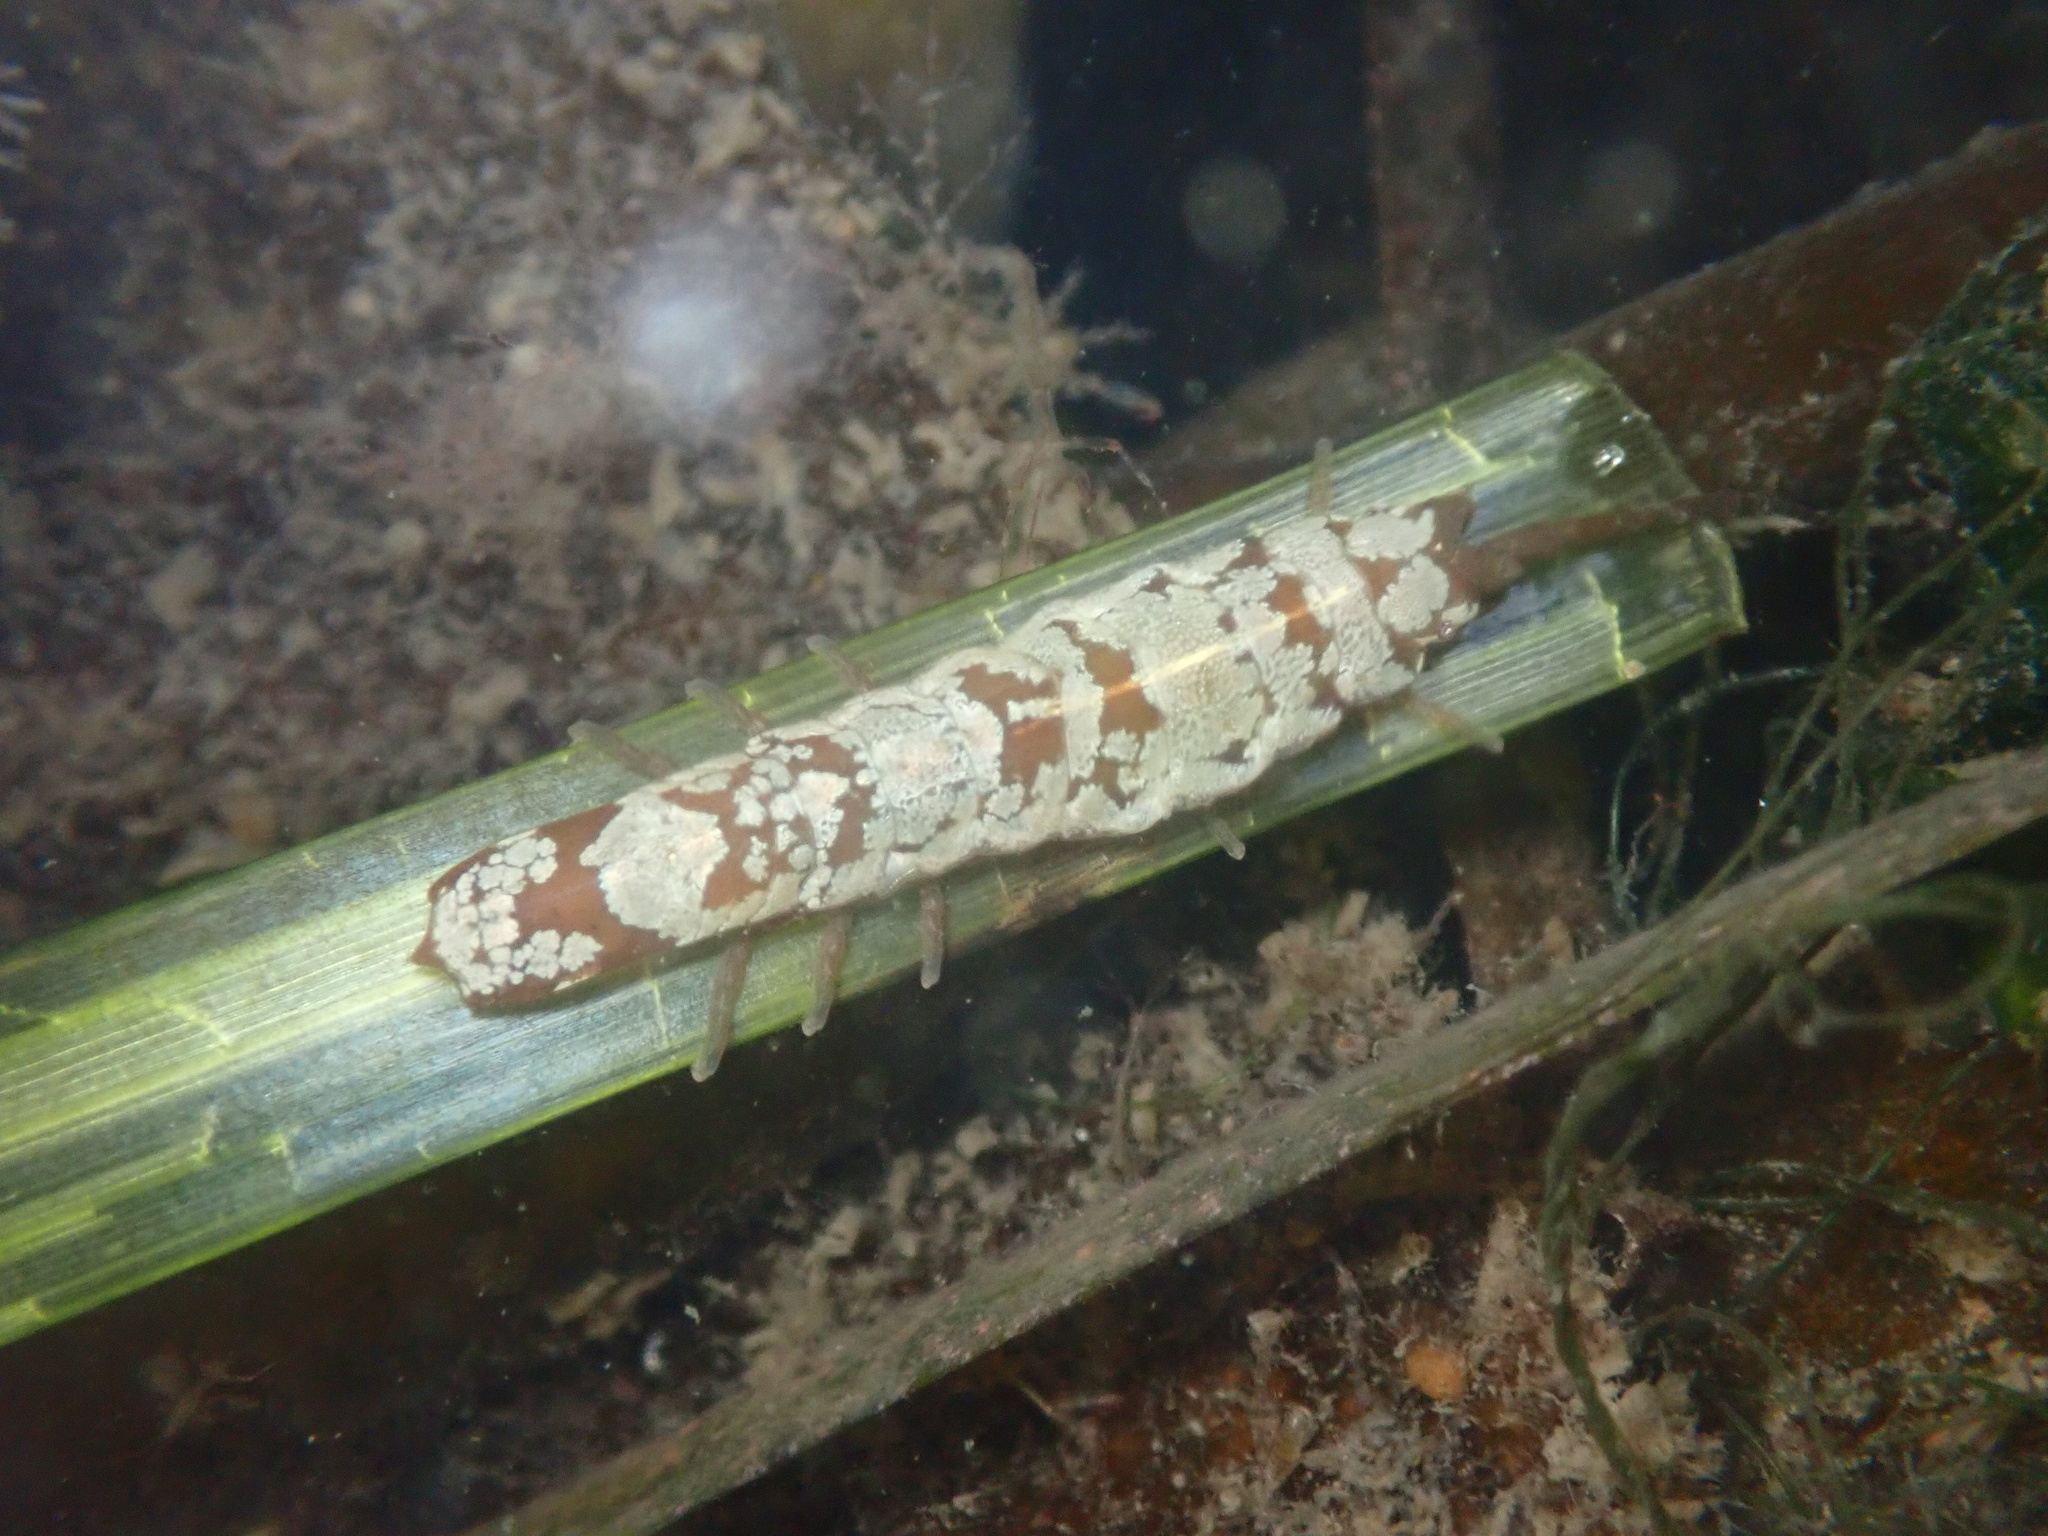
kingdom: Animalia
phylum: Arthropoda
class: Malacostraca
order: Isopoda
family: Idoteidae
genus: Idotea
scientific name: Idotea fewkesi
